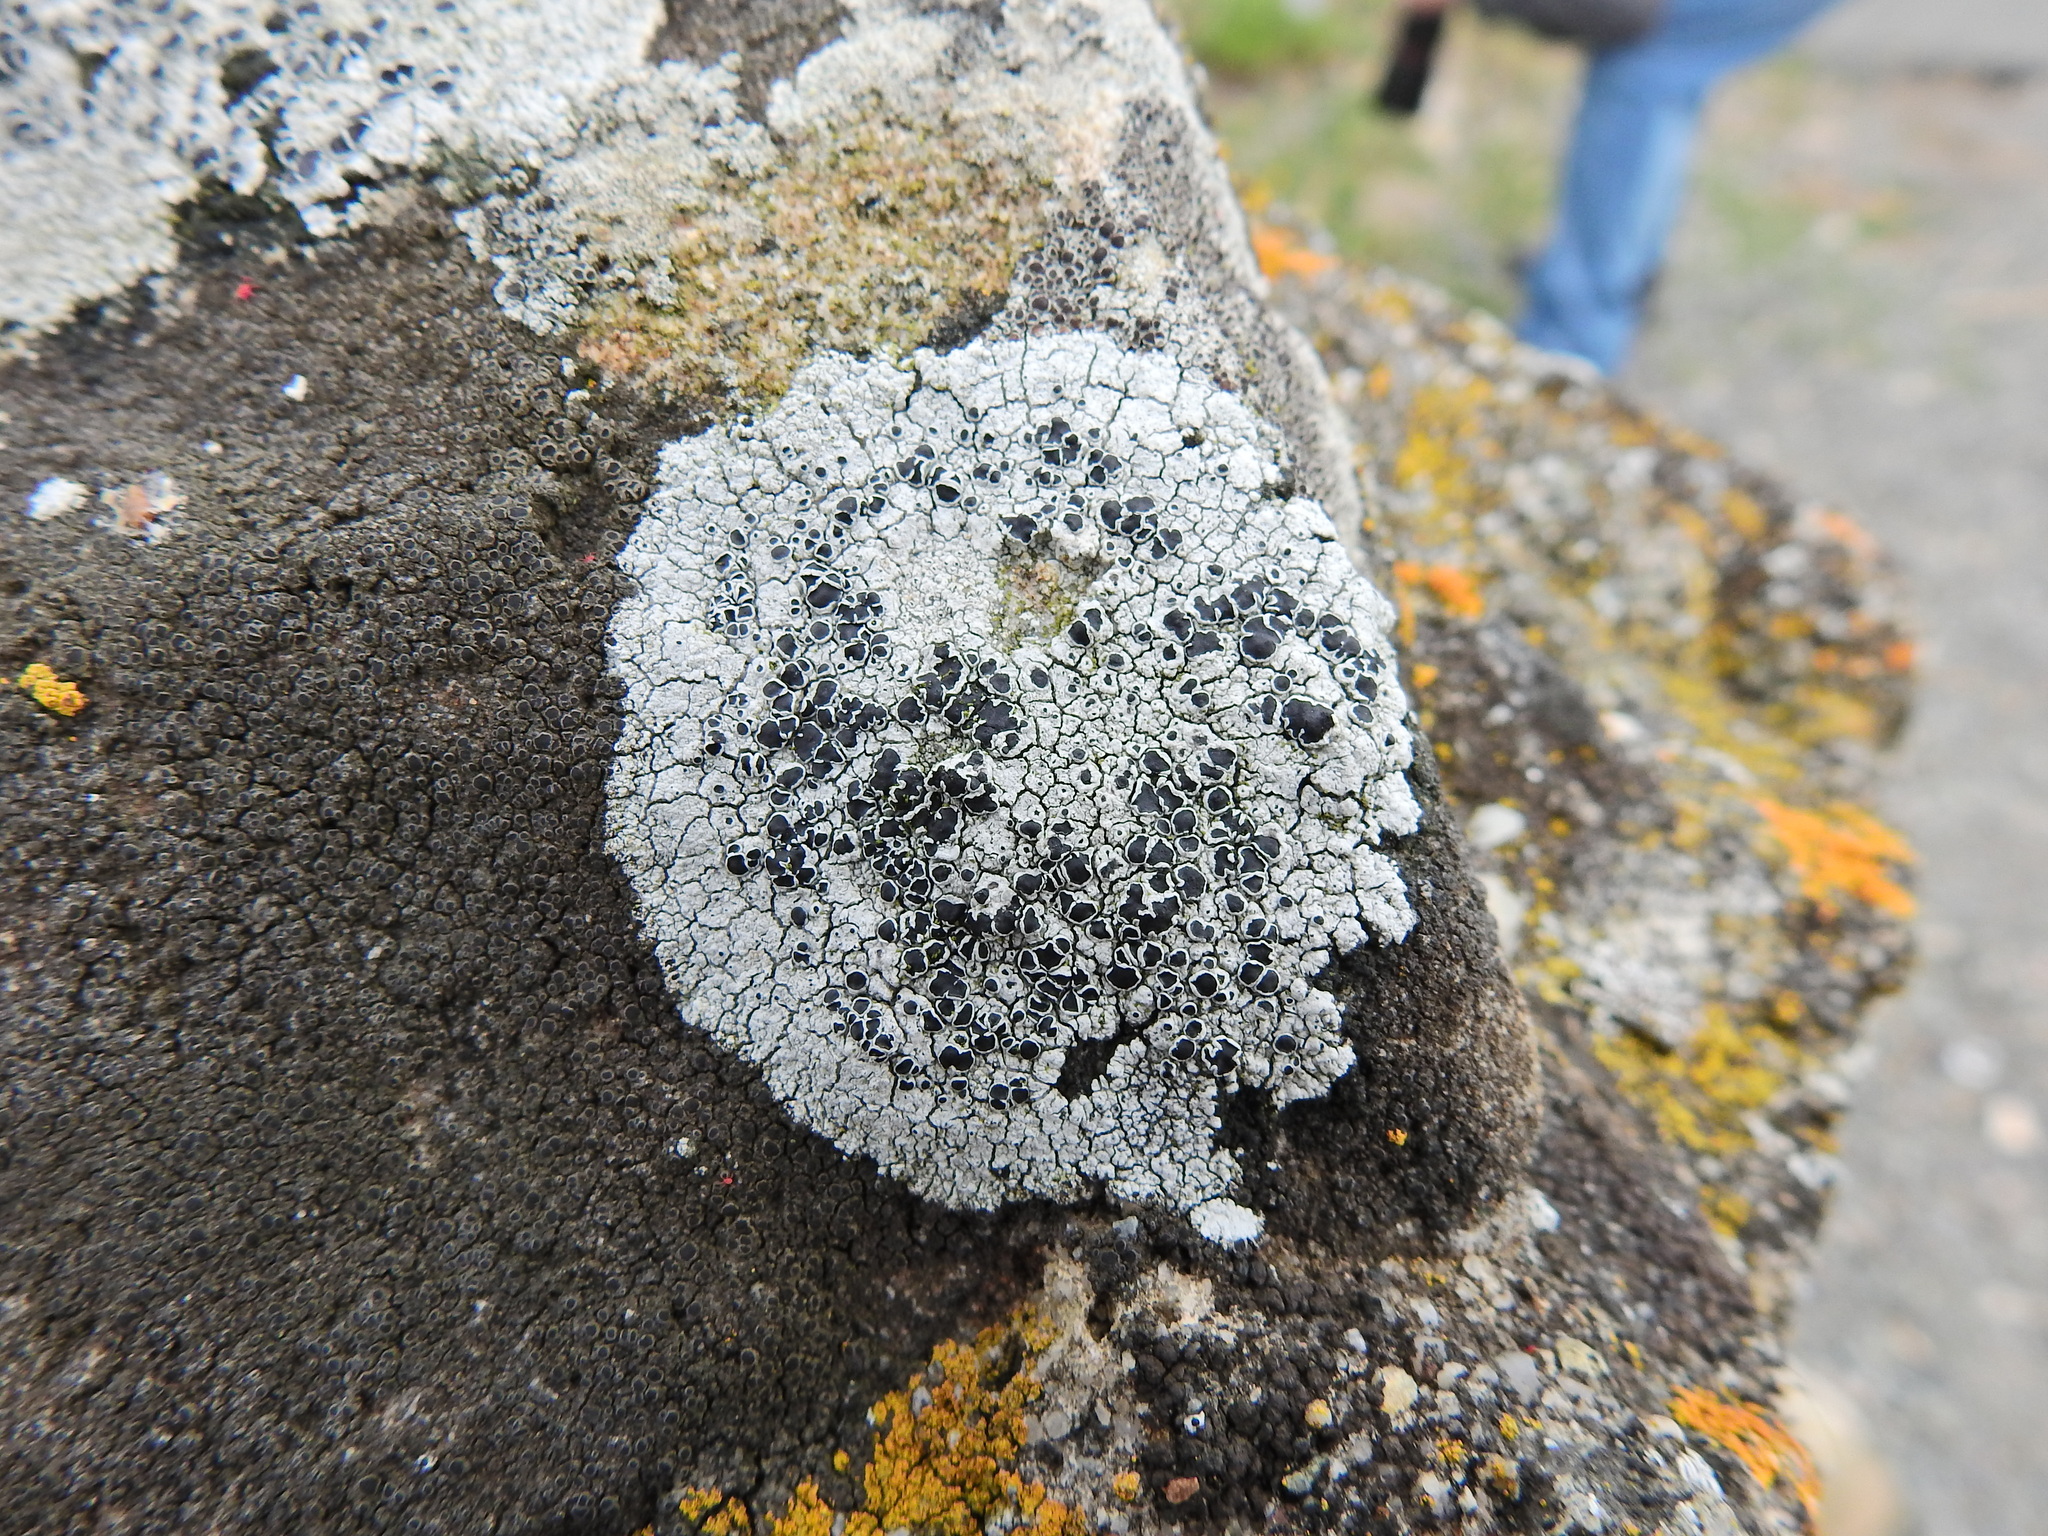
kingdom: Fungi
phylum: Ascomycota
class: Lecanoromycetes
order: Lecanorales
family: Tephromelataceae
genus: Tephromela
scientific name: Tephromela atra
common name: Black shields
